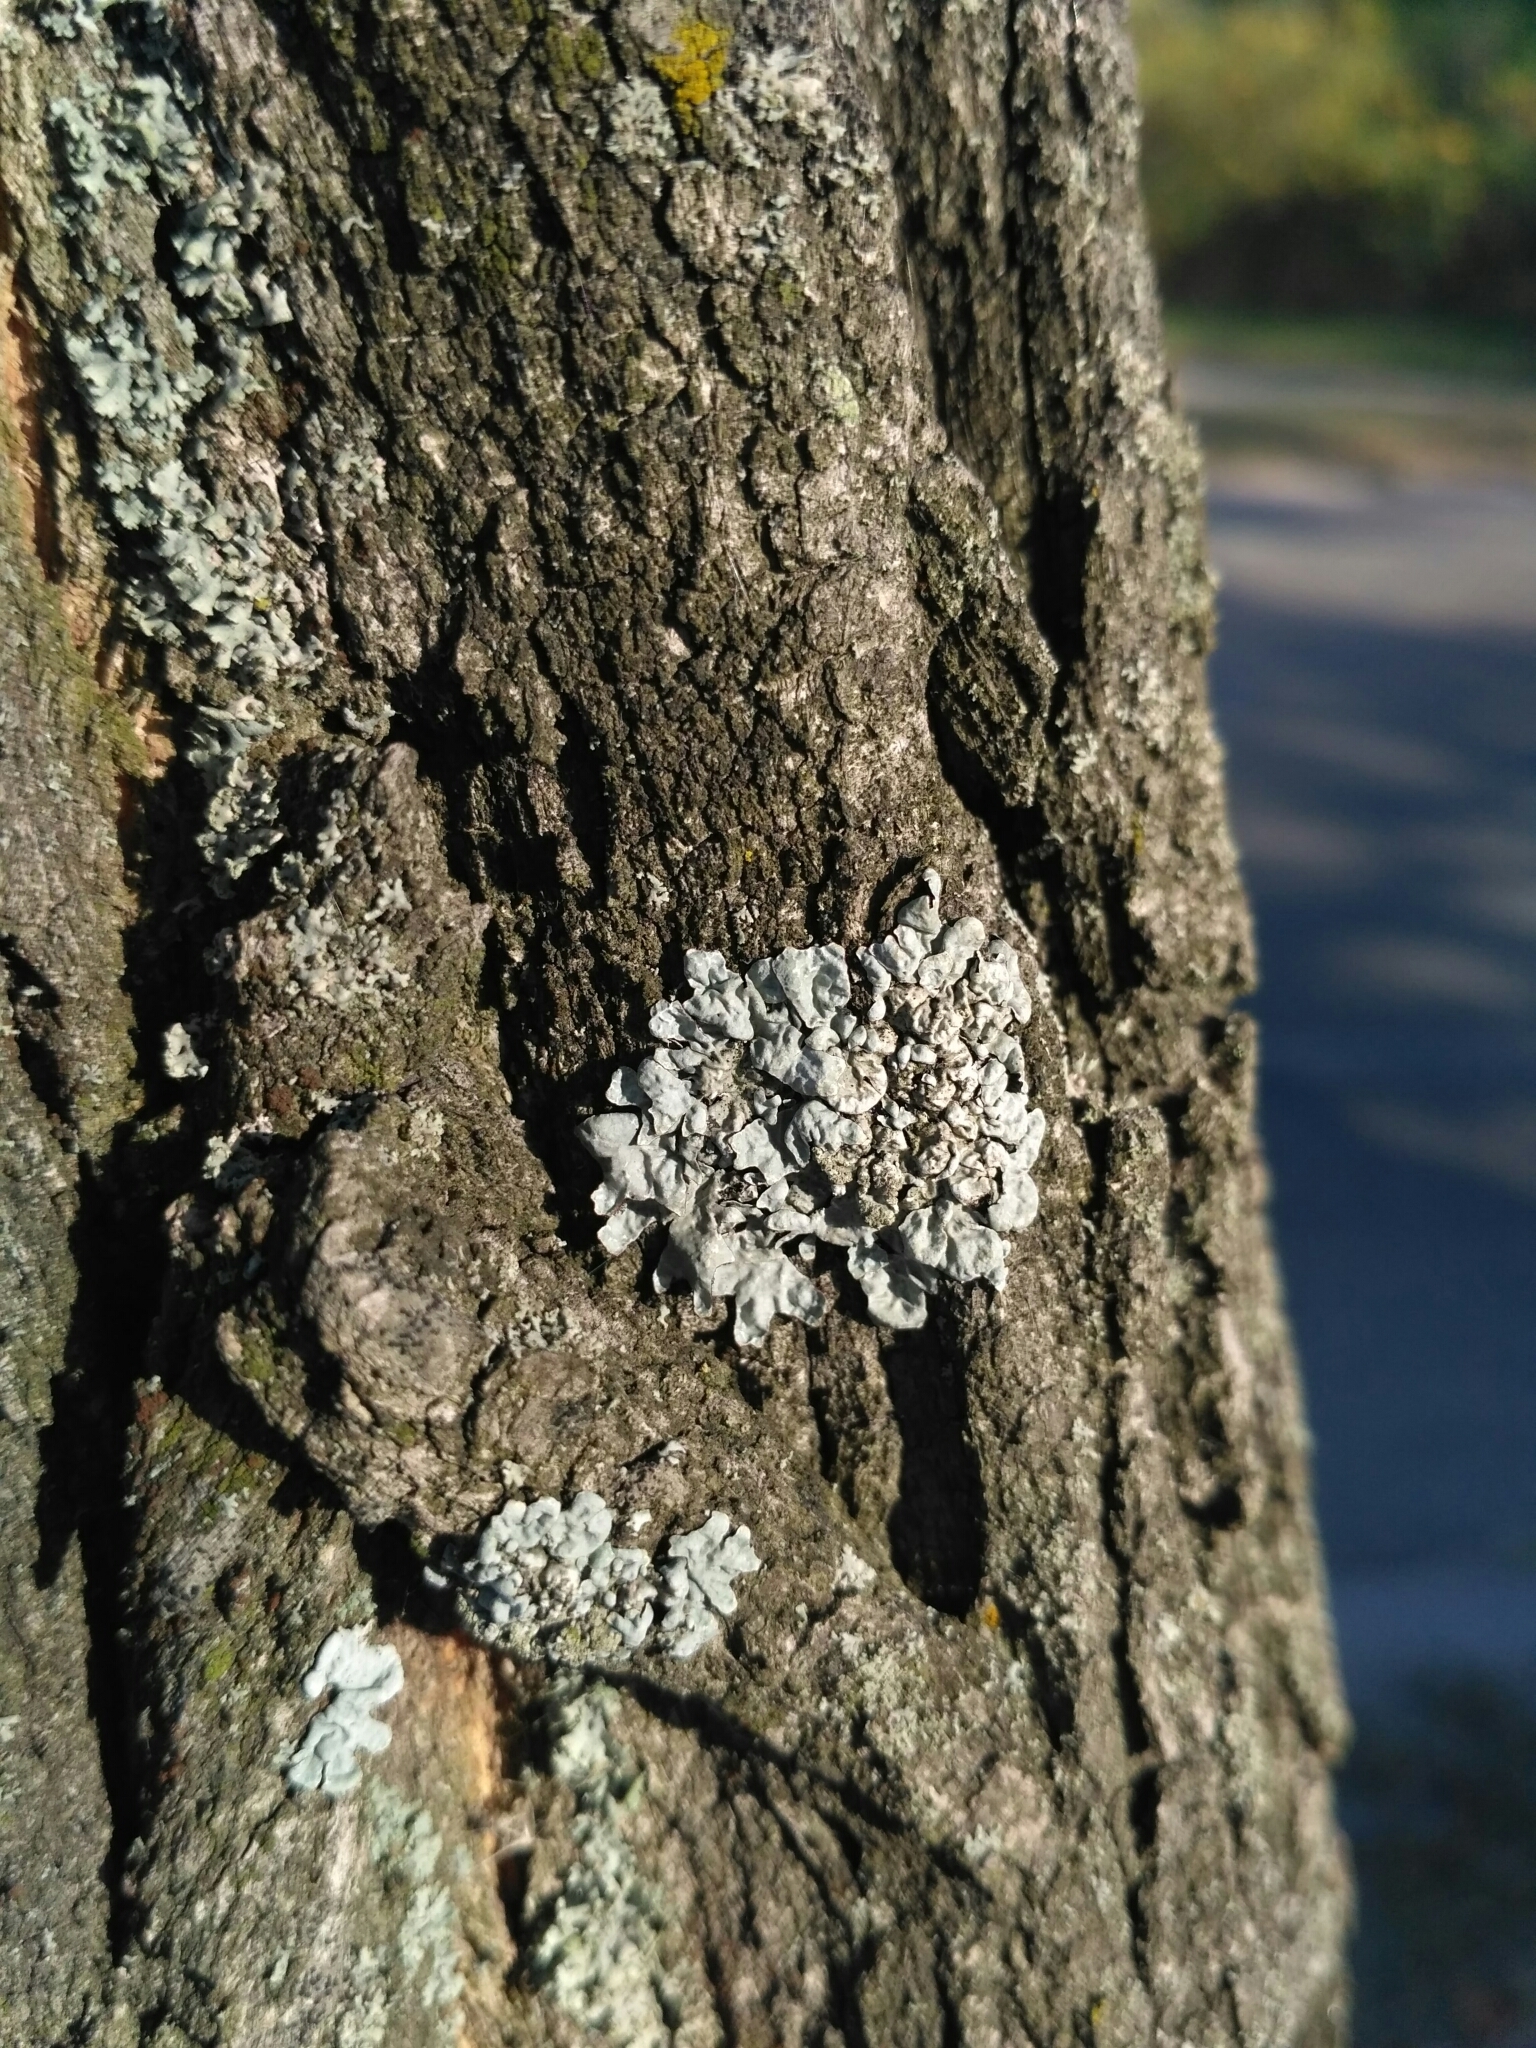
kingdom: Fungi
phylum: Ascomycota
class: Lecanoromycetes
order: Lecanorales
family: Parmeliaceae
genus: Parmelia
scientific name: Parmelia sulcata
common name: Netted shield lichen
